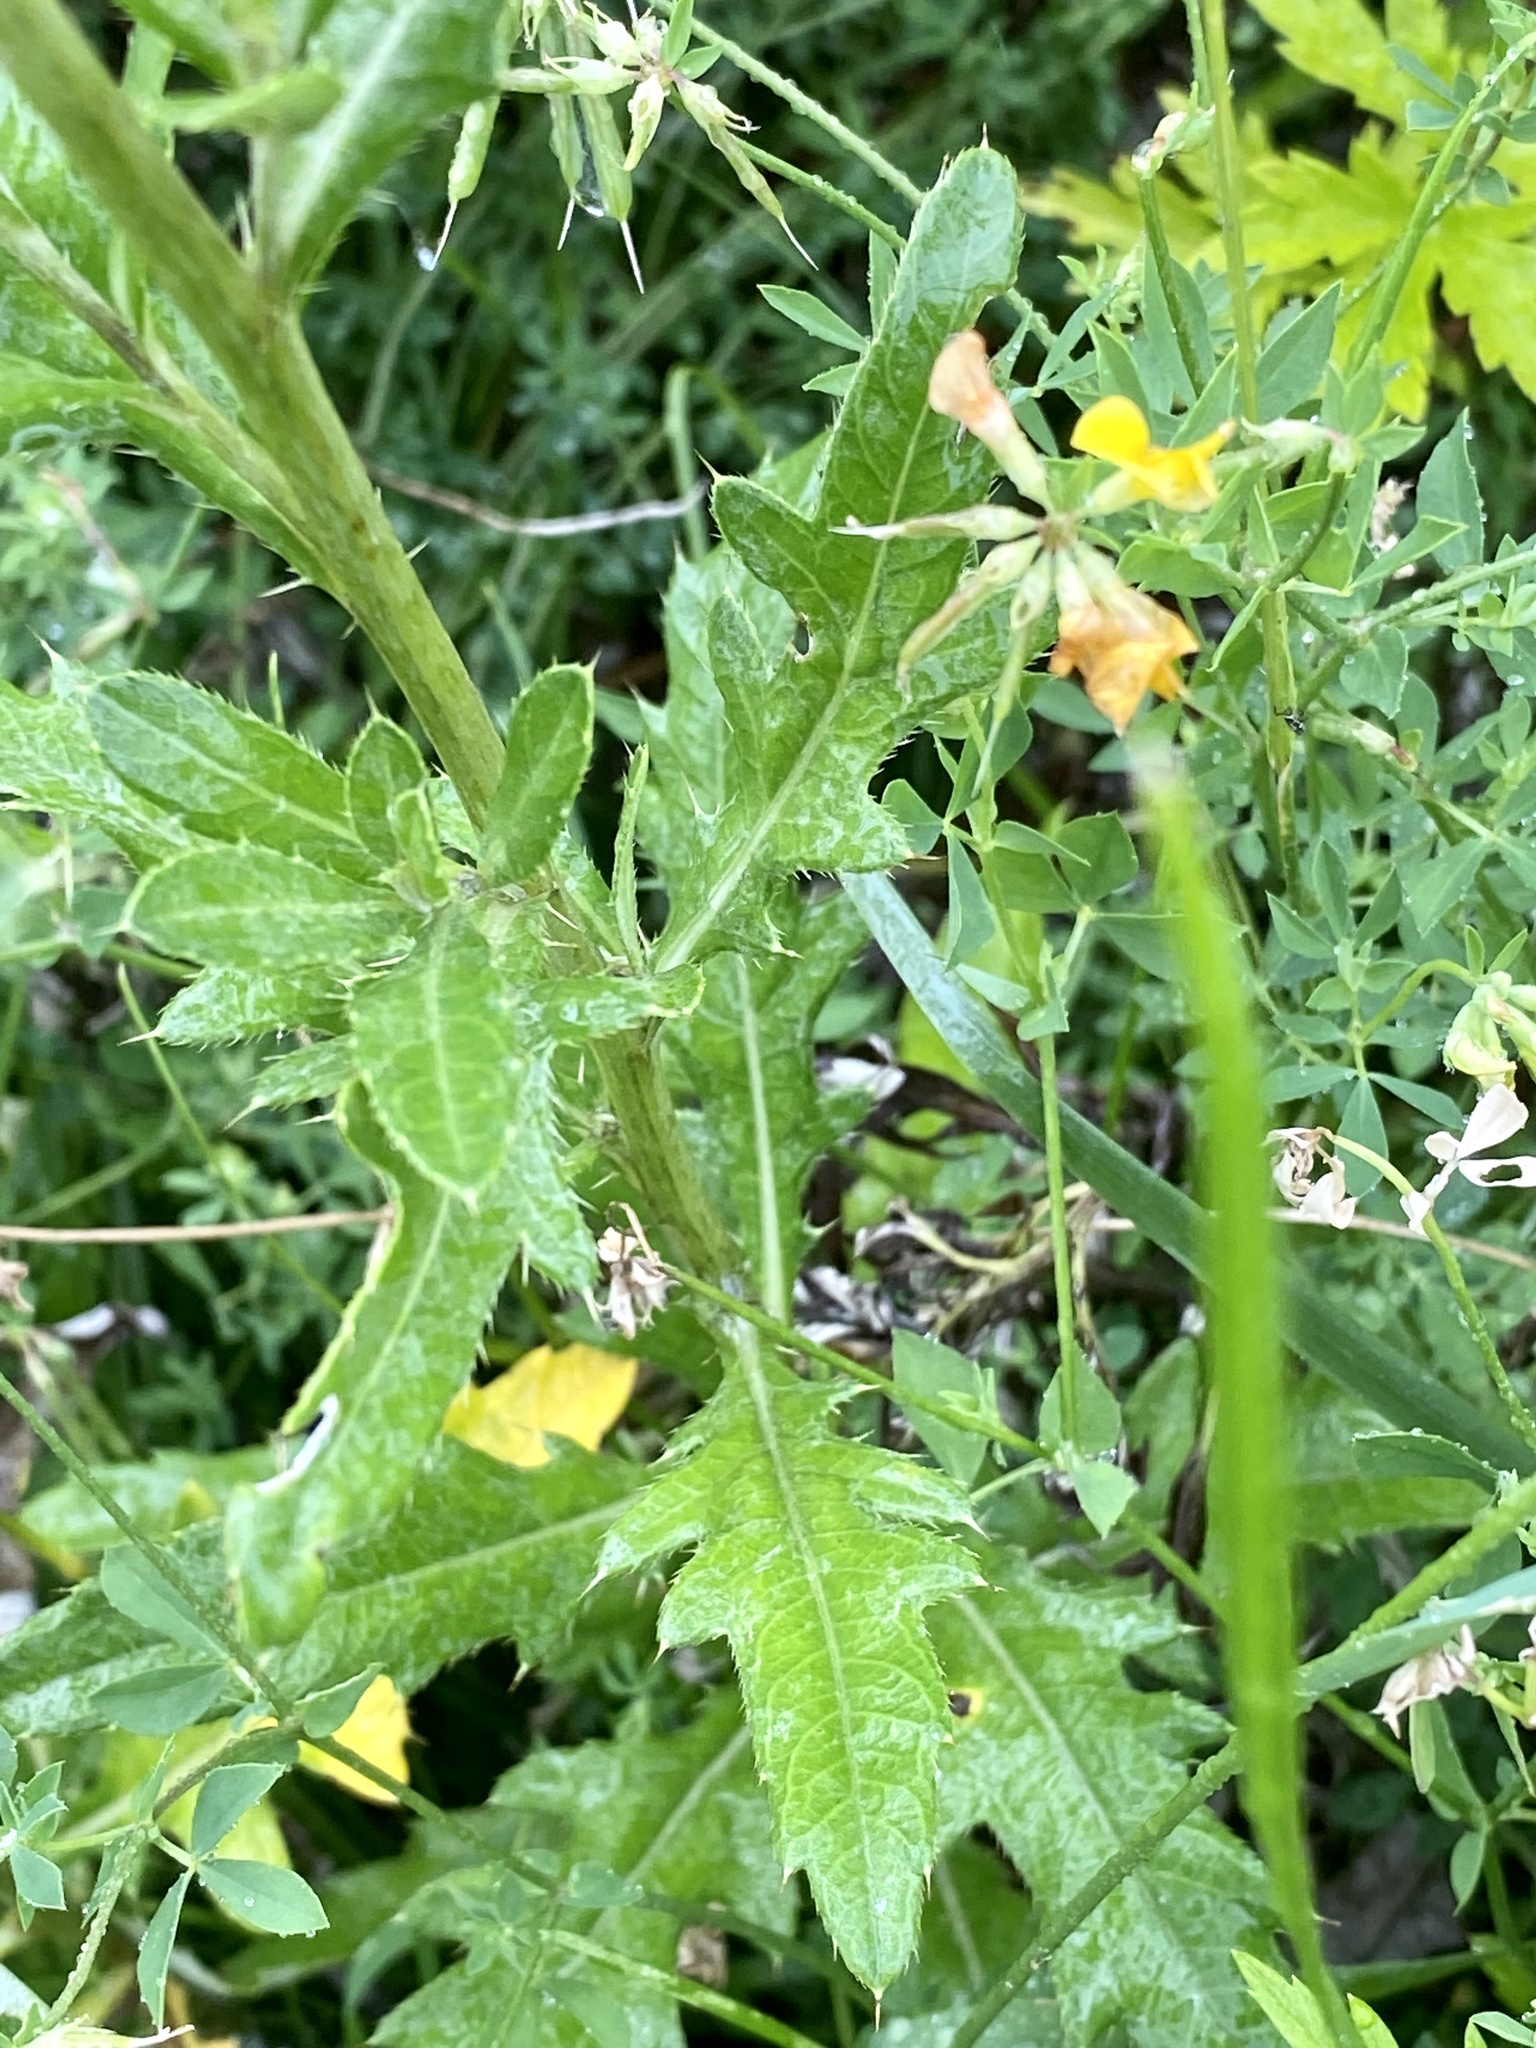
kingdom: Plantae
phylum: Tracheophyta
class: Magnoliopsida
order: Asterales
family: Asteraceae
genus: Cirsium
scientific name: Cirsium arvense
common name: Creeping thistle
